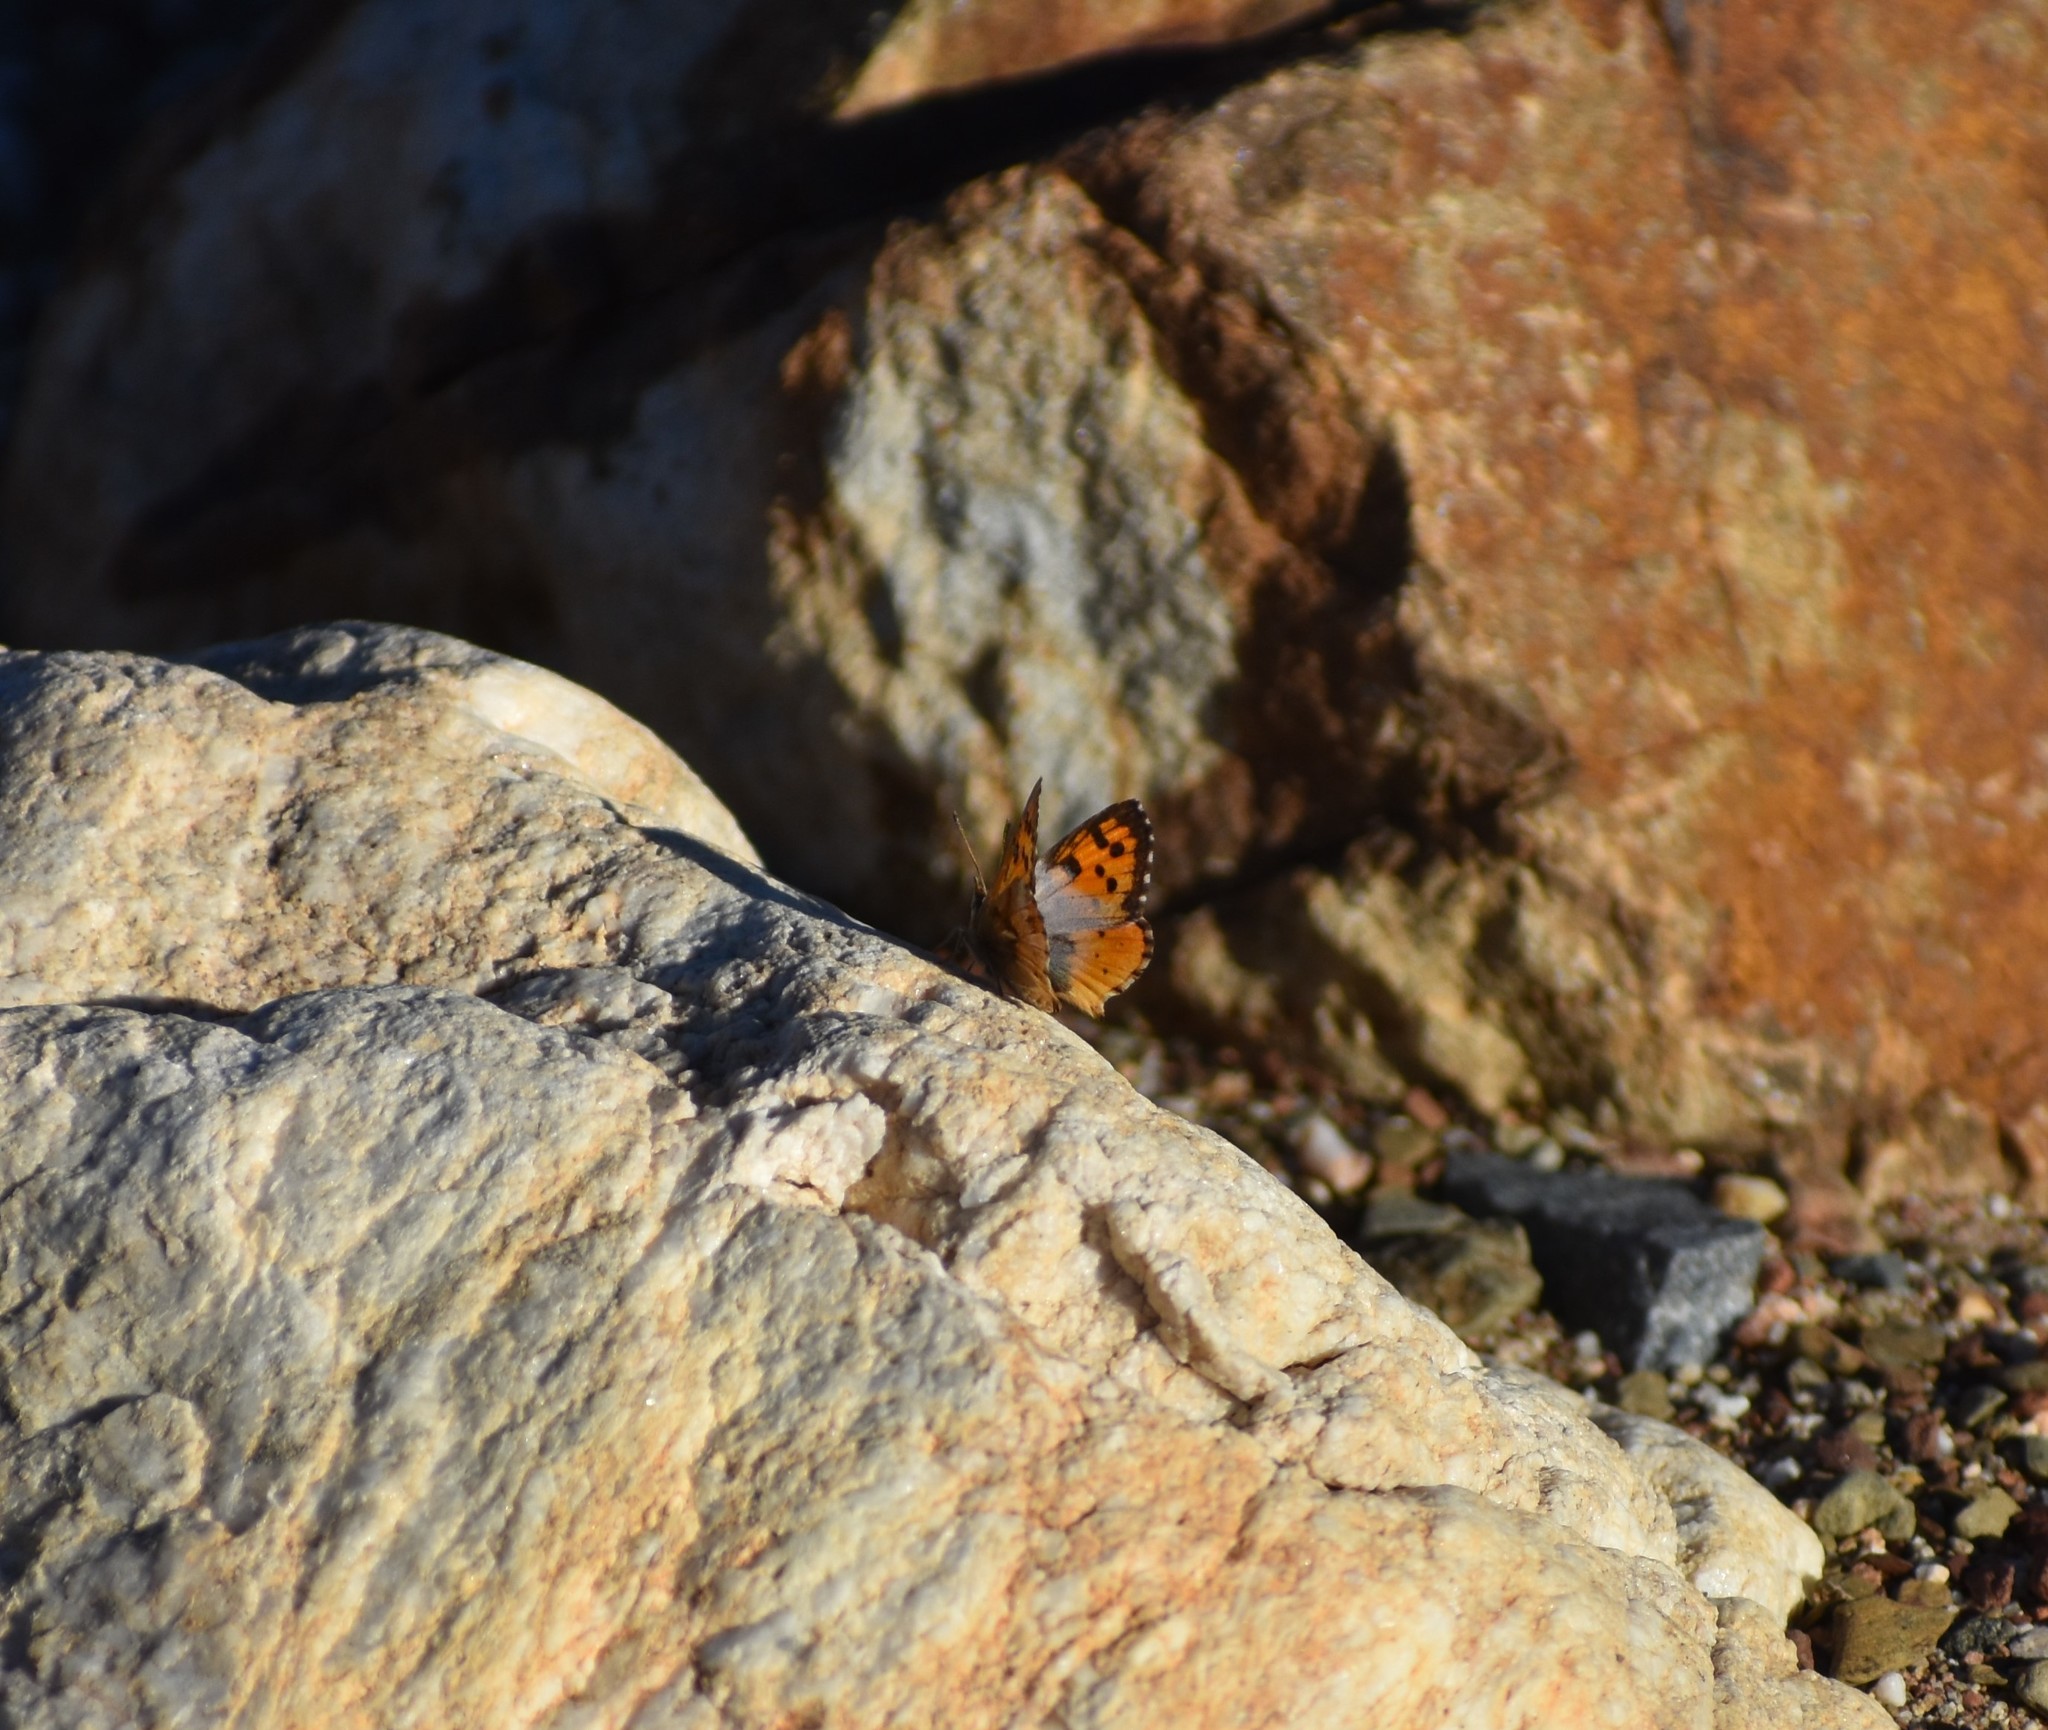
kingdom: Animalia
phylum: Arthropoda
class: Insecta
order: Lepidoptera
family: Lycaenidae
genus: Chrysoritis
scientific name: Chrysoritis
